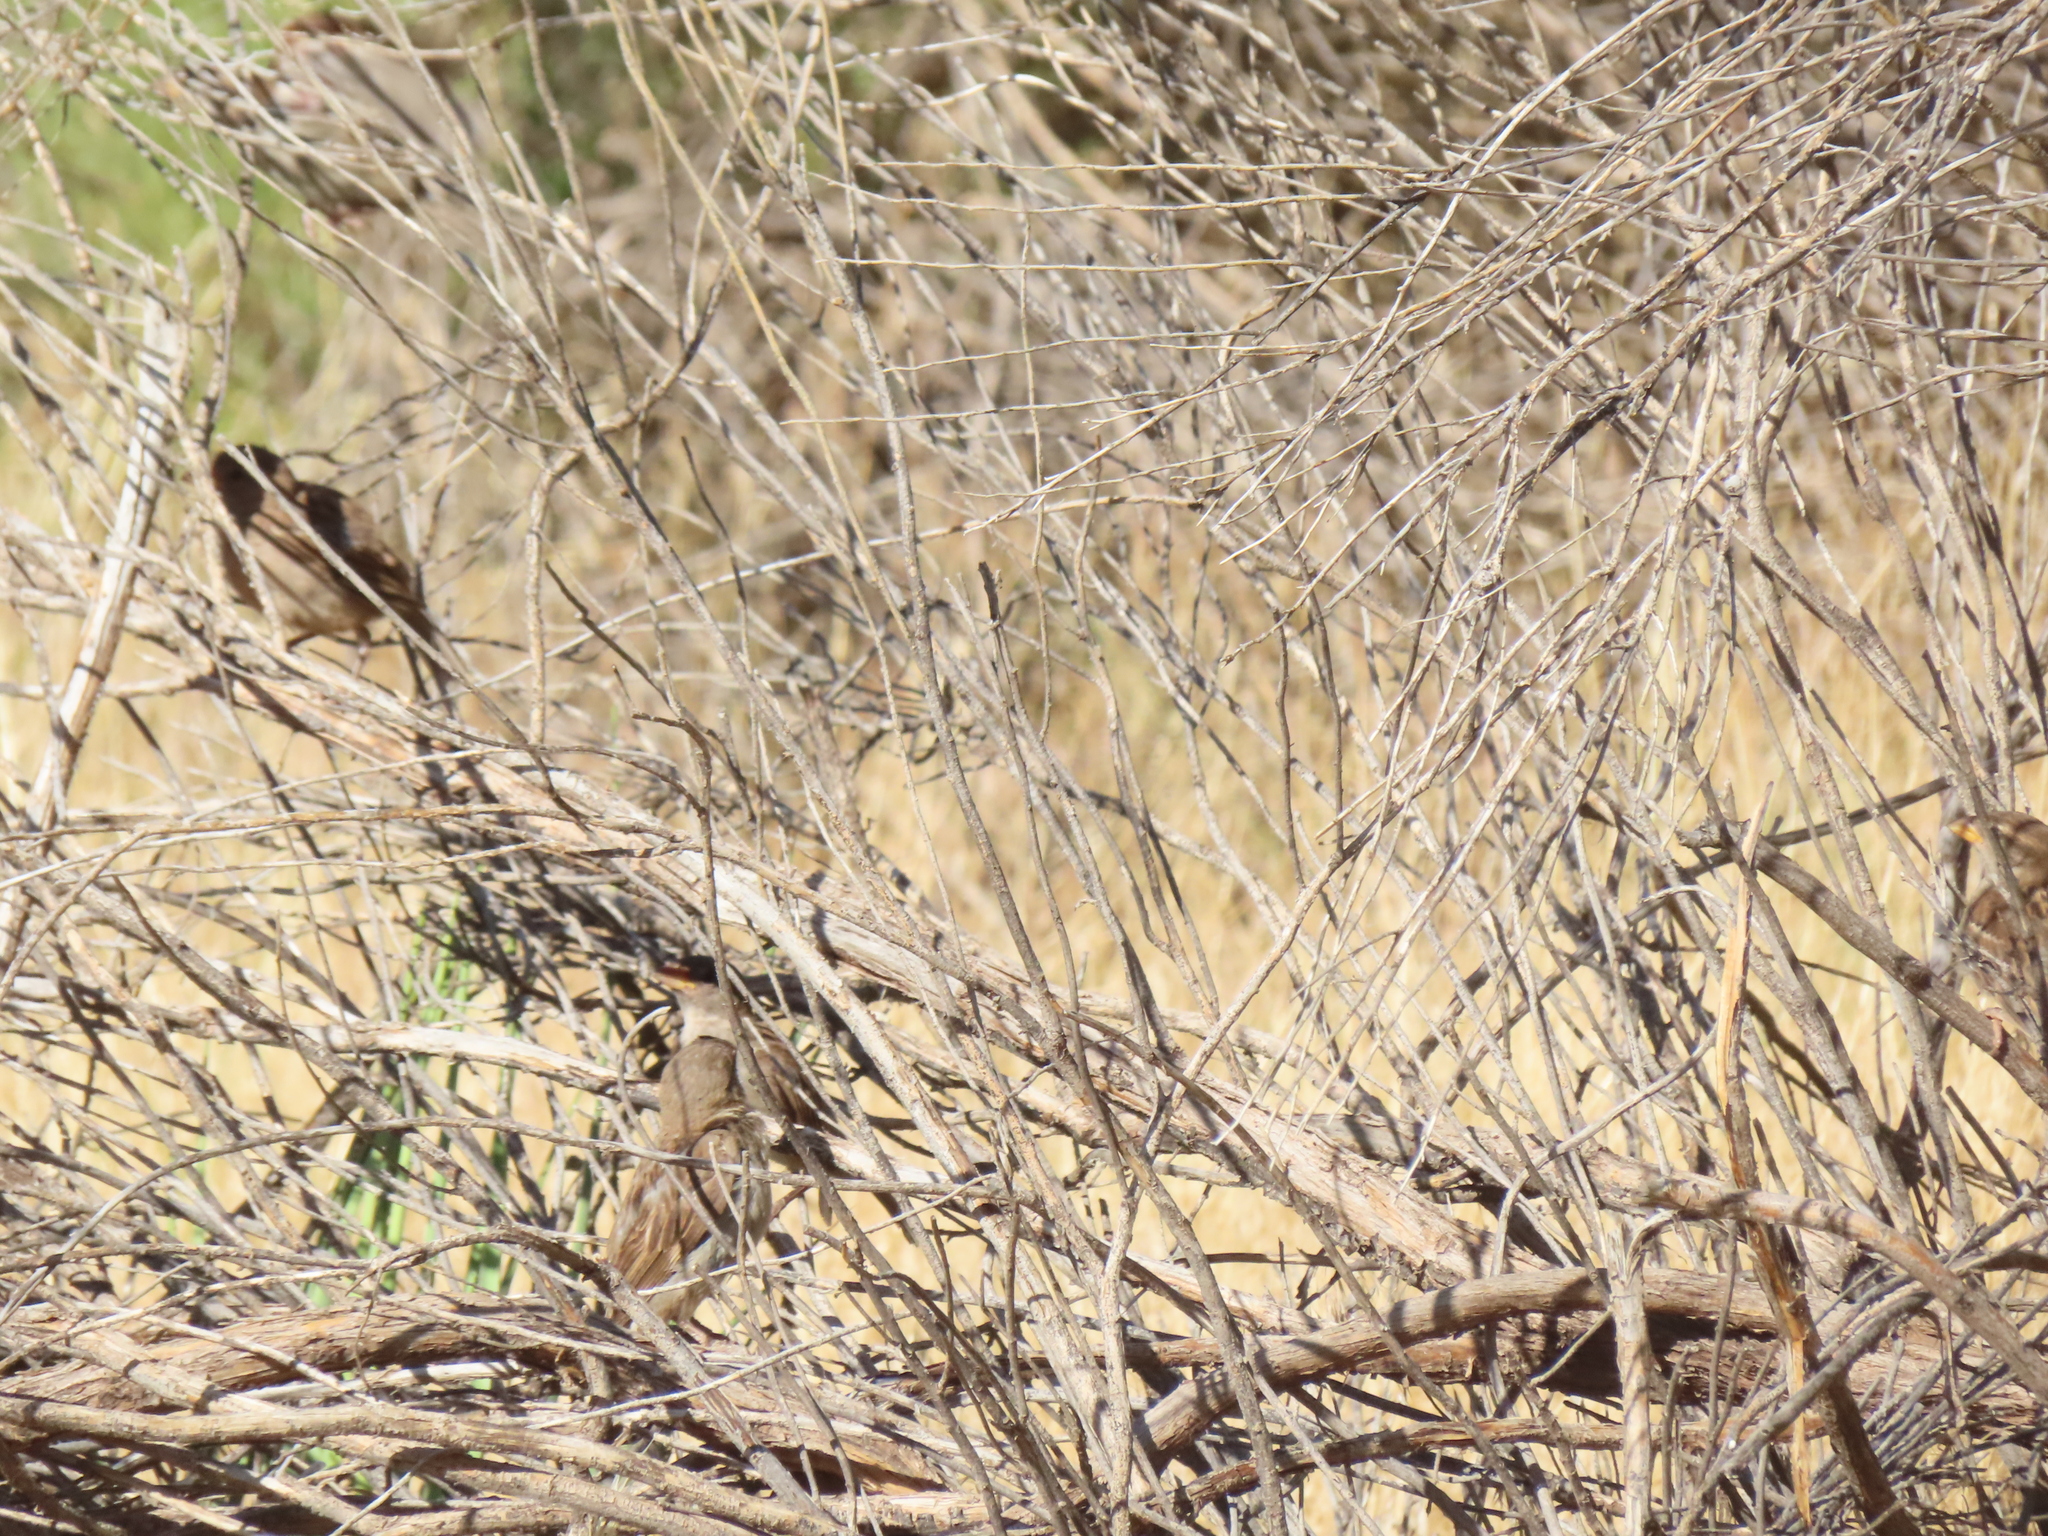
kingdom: Animalia
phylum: Chordata
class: Aves
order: Passeriformes
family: Passeridae
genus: Passer
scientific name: Passer domesticus
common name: House sparrow
